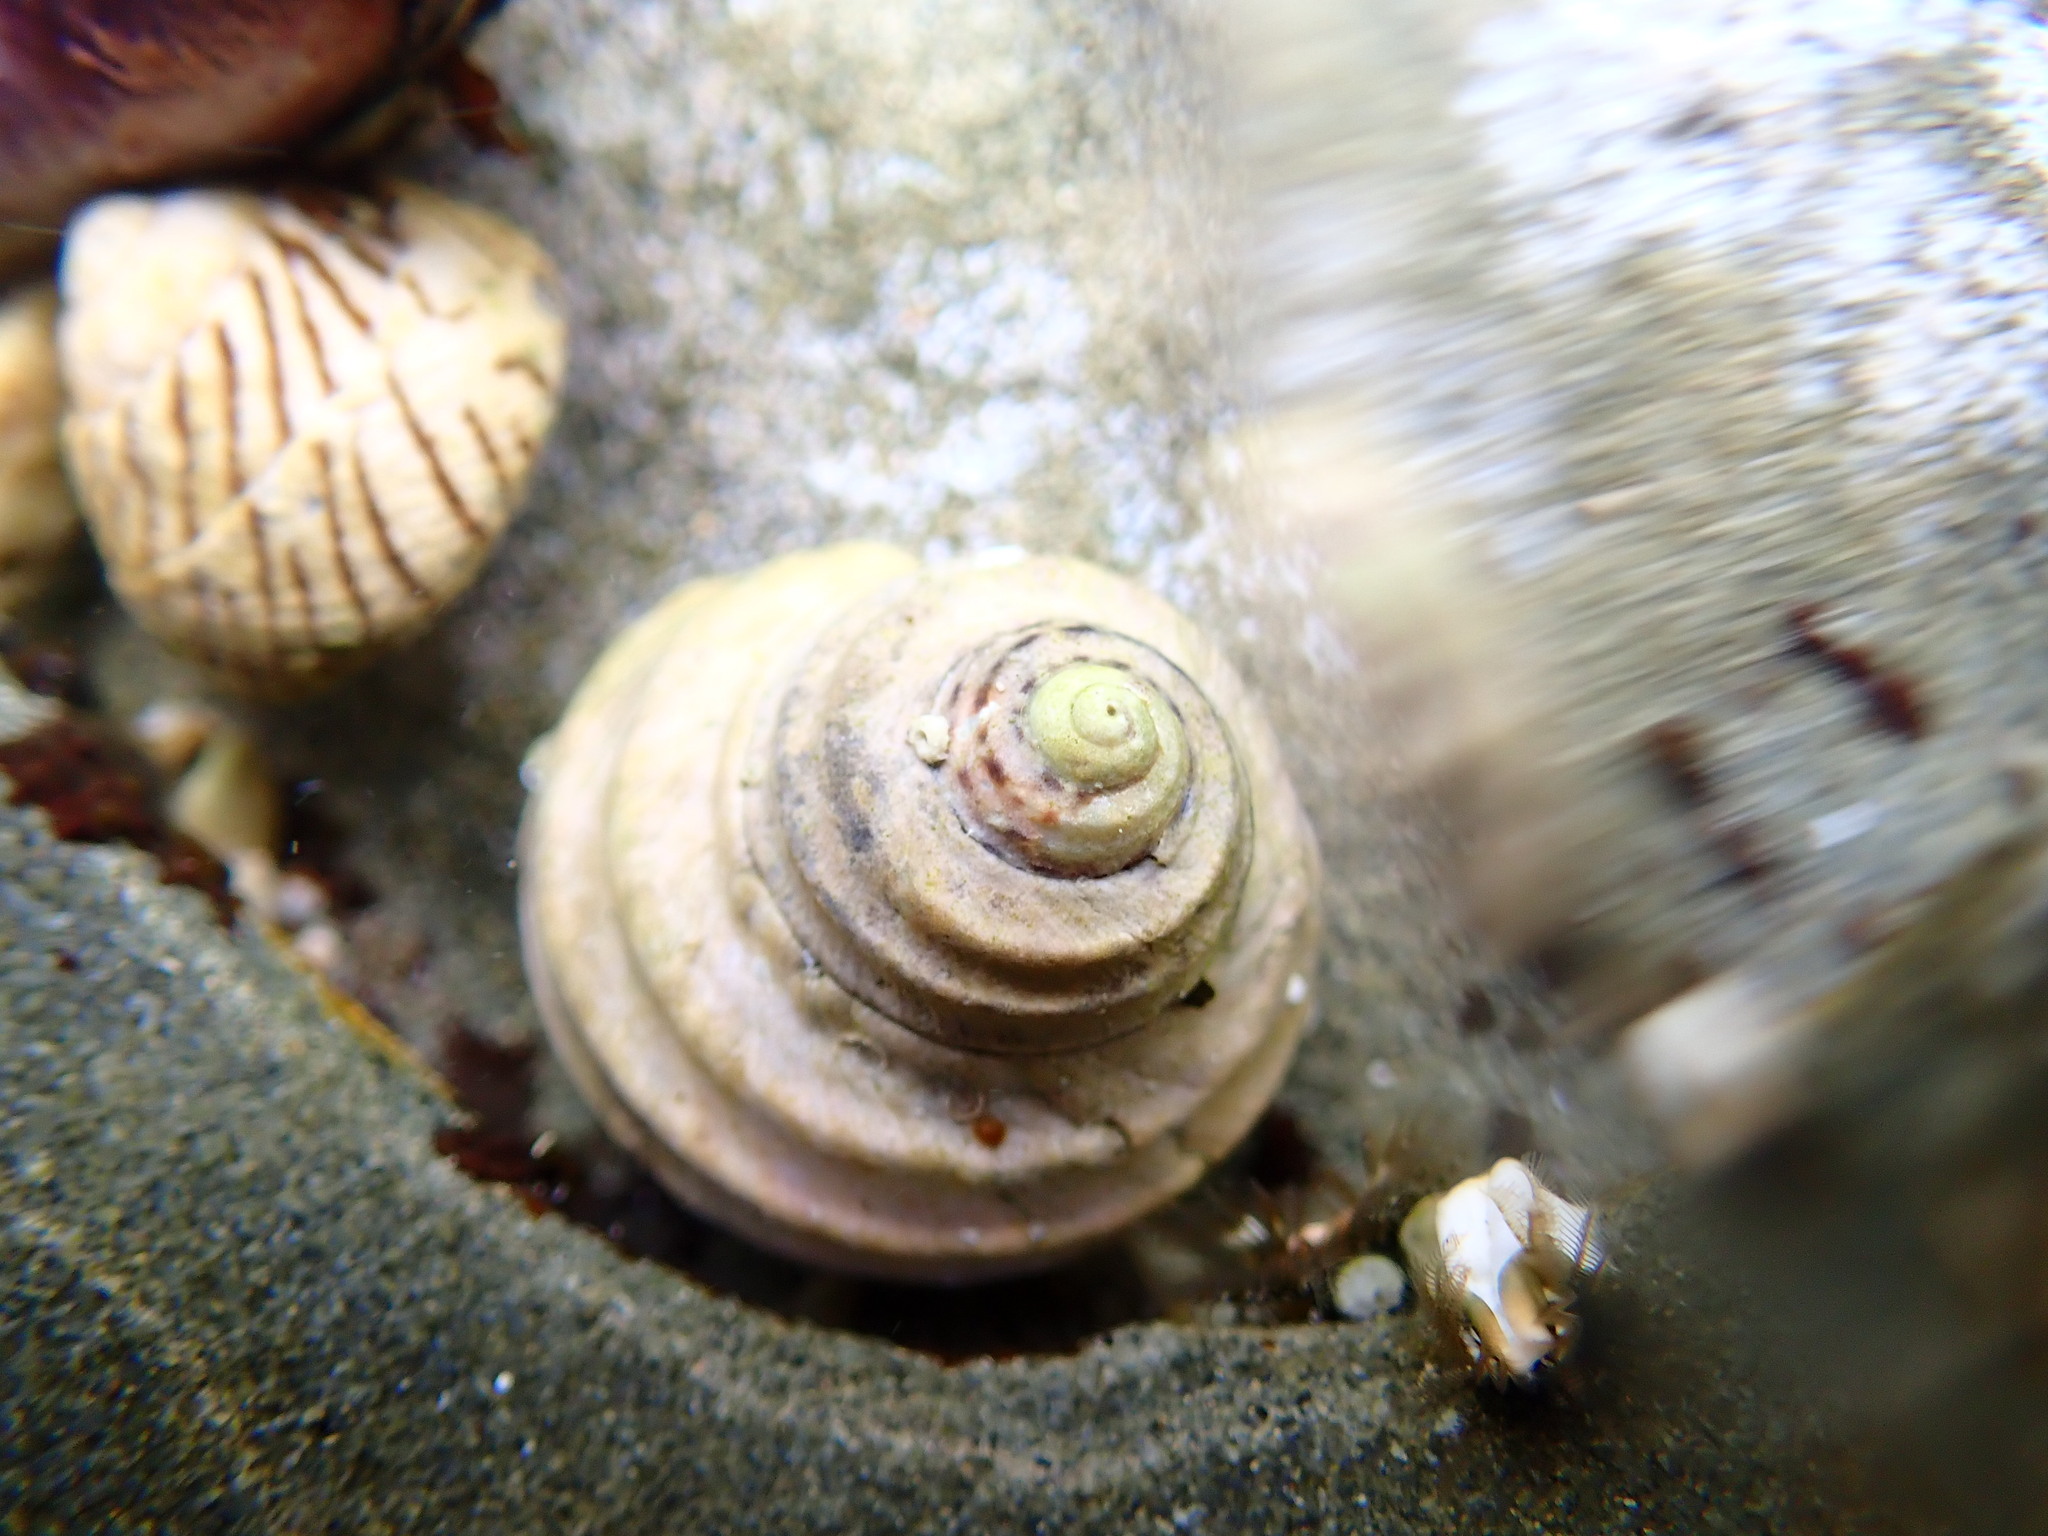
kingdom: Animalia
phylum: Mollusca
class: Gastropoda
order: Trochida
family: Trochidae
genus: Austrocochlea
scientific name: Austrocochlea constricta
